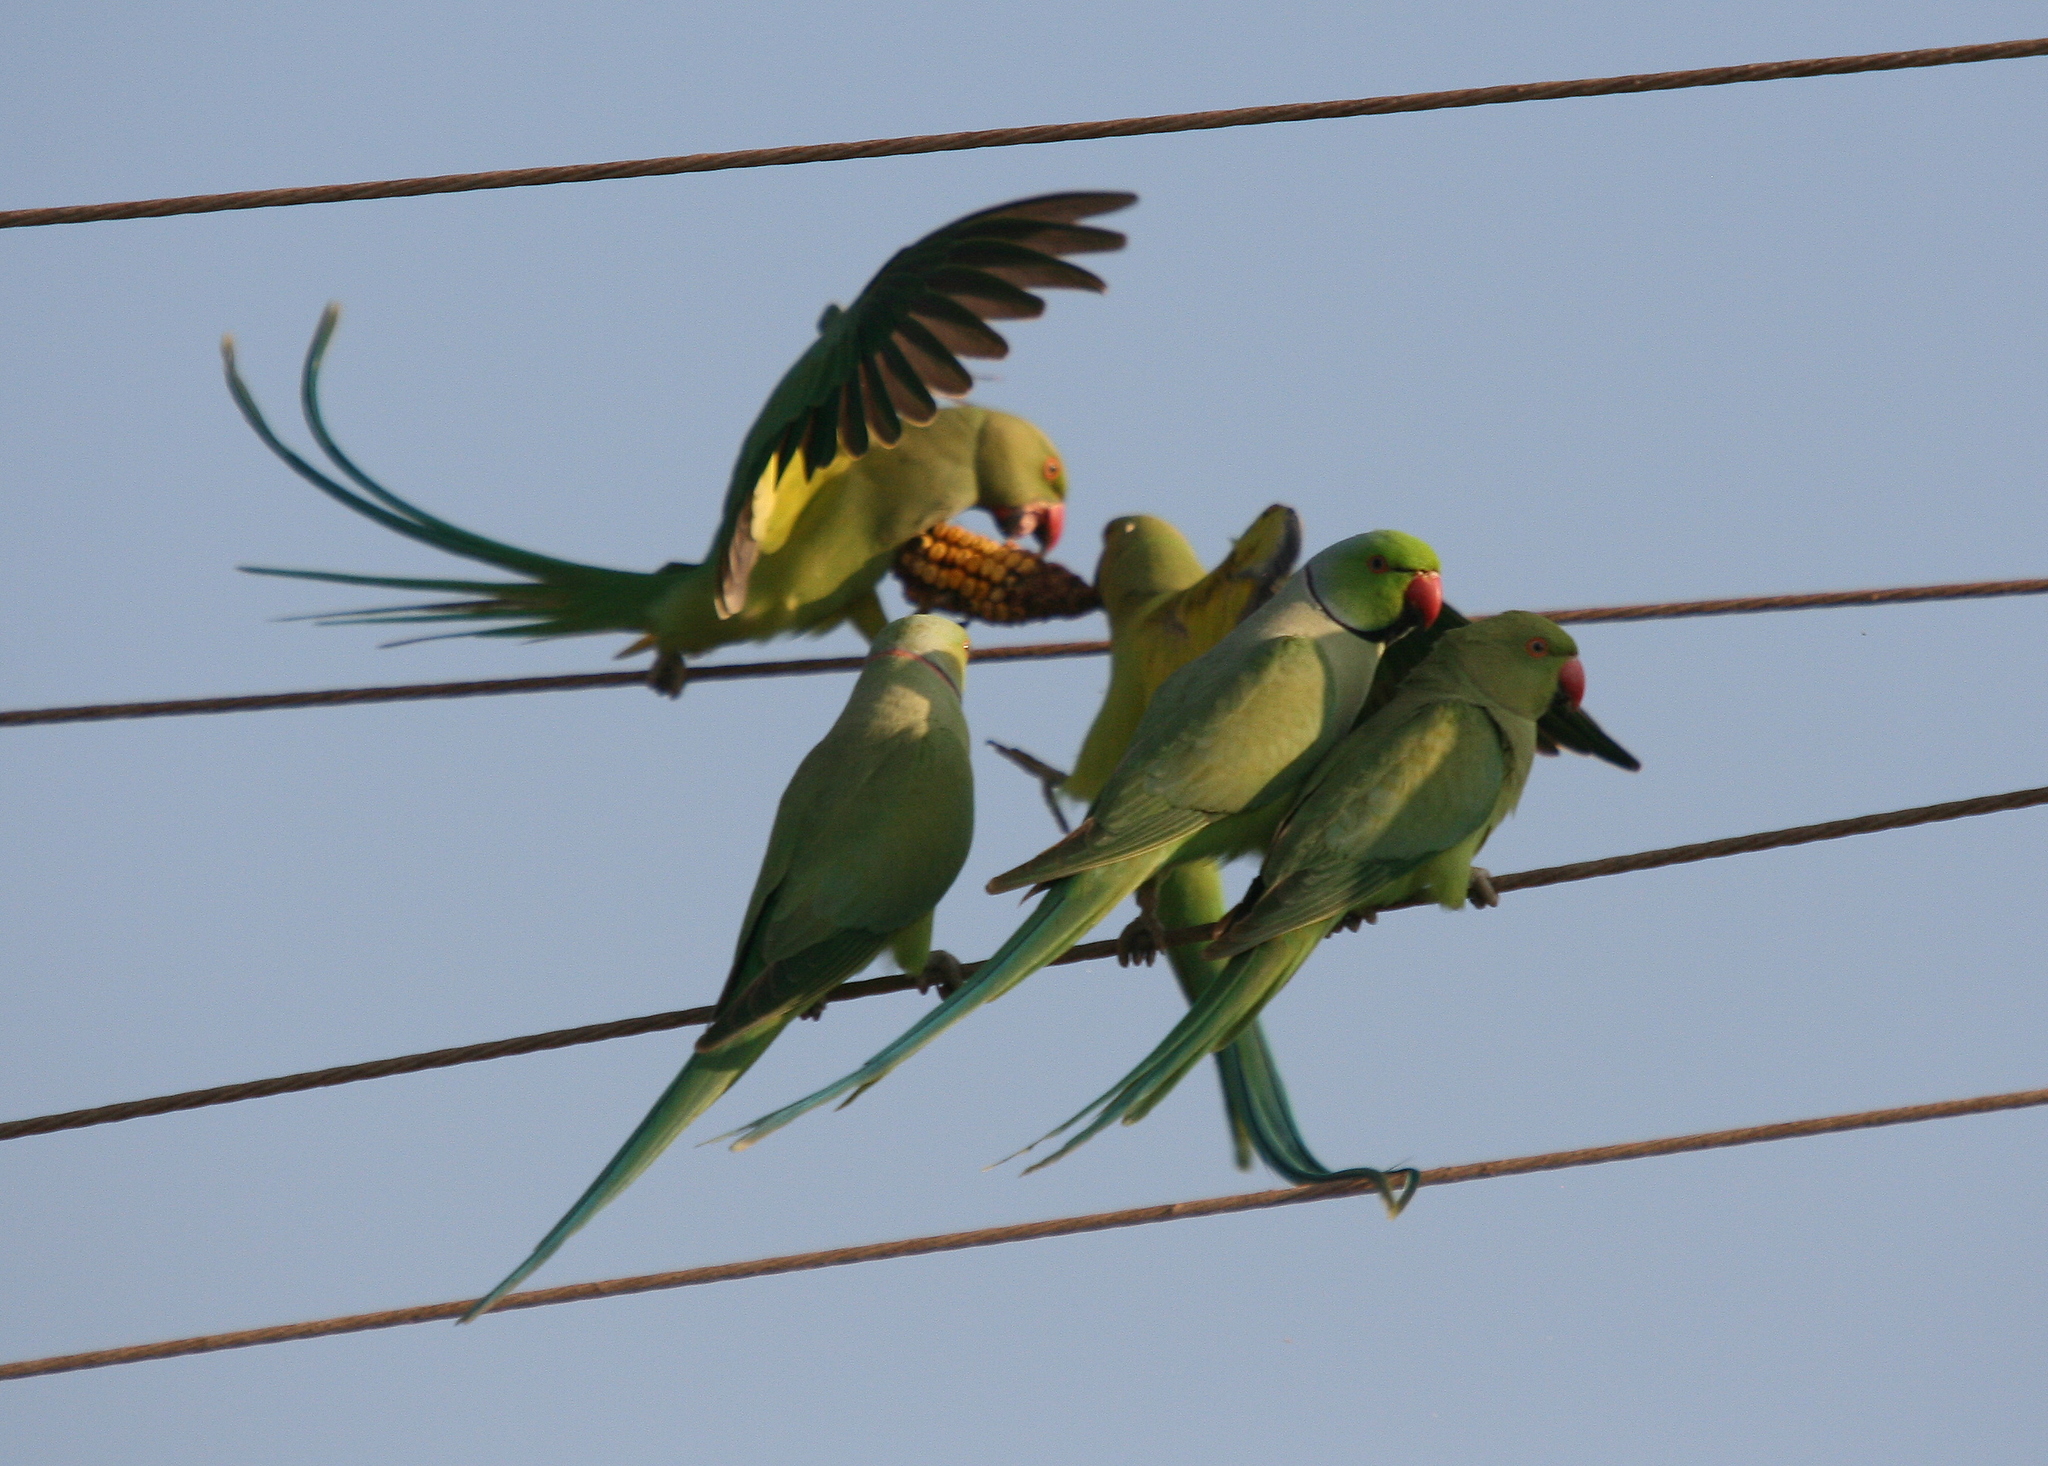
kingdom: Animalia
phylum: Chordata
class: Aves
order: Psittaciformes
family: Psittacidae
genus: Psittacula
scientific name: Psittacula krameri
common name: Rose-ringed parakeet
